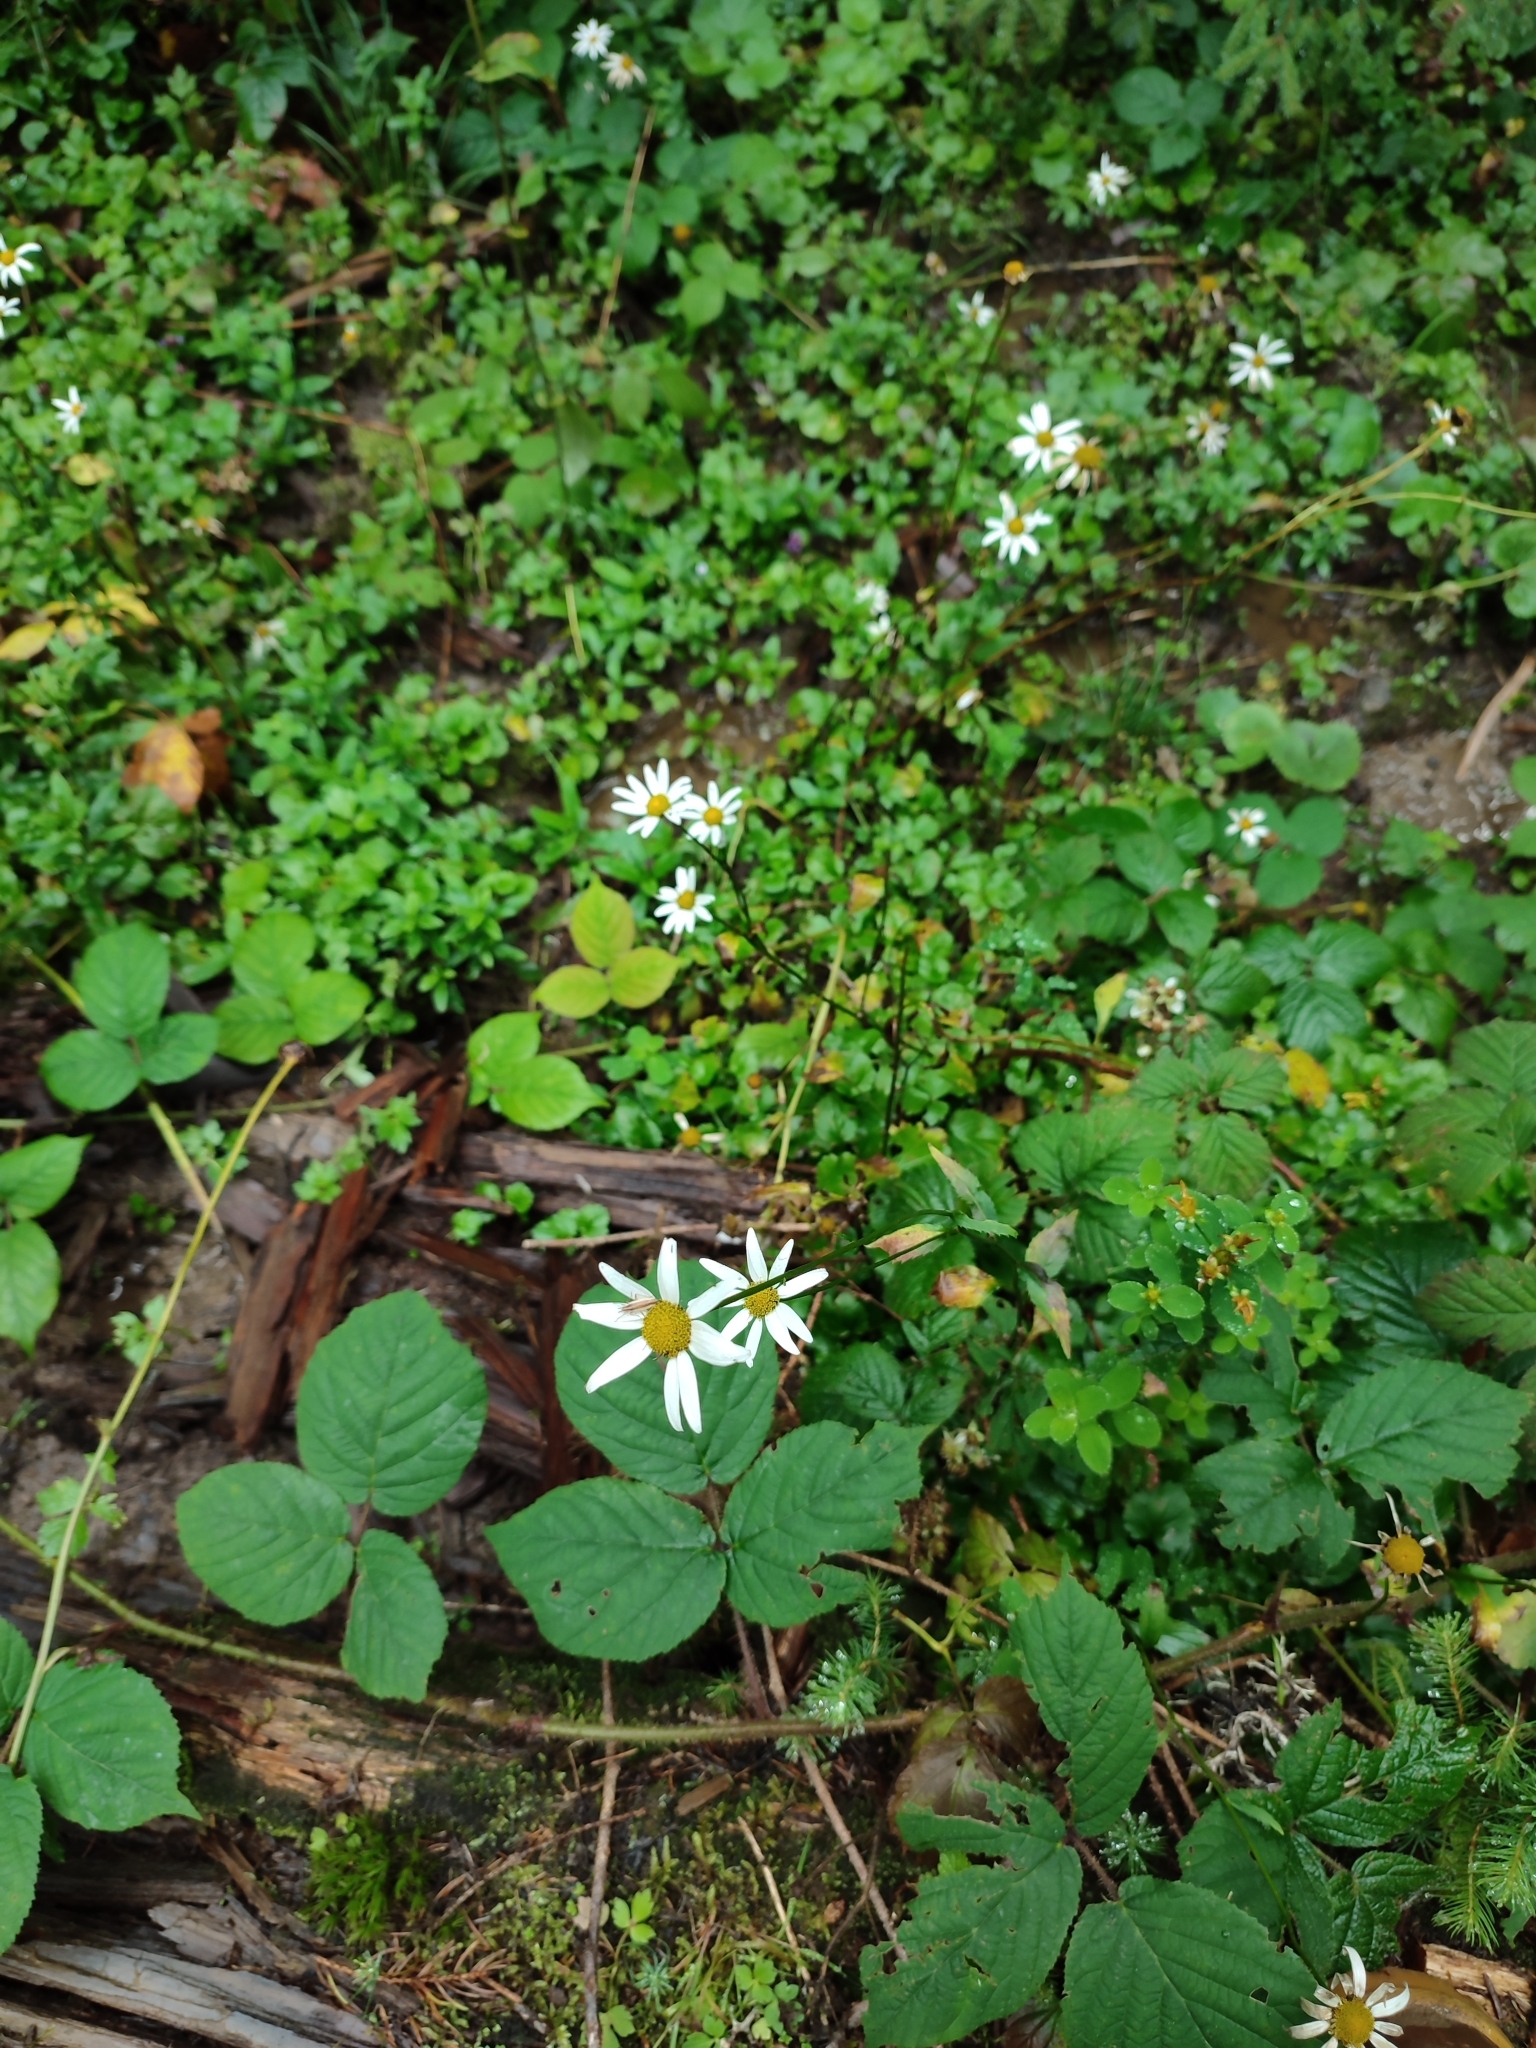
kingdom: Plantae
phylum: Tracheophyta
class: Magnoliopsida
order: Asterales
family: Asteraceae
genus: Leucanthemum
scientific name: Leucanthemum rotundifolium
